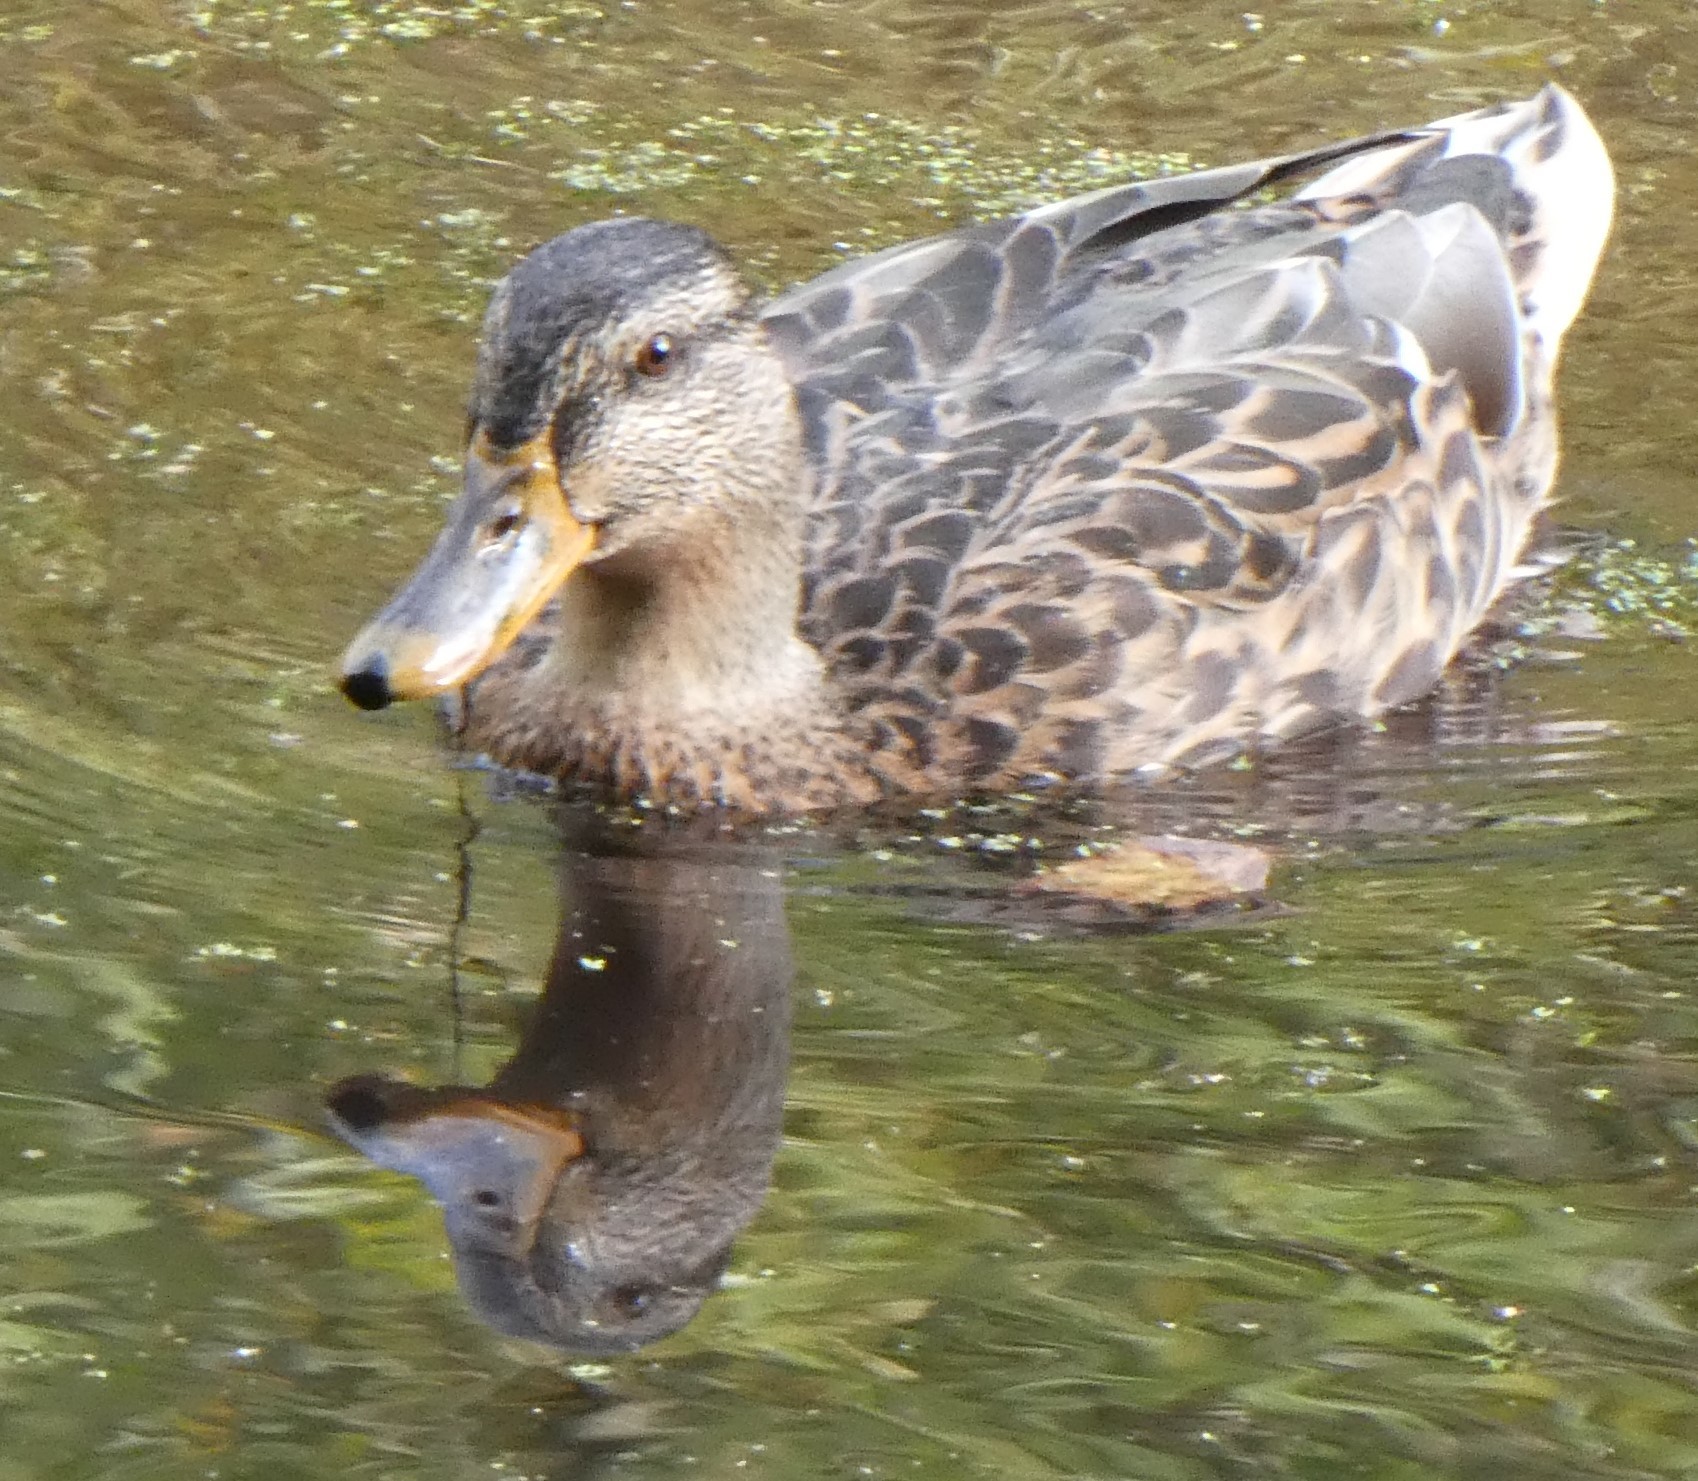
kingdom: Animalia
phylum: Chordata
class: Aves
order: Anseriformes
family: Anatidae
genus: Anas
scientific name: Anas platyrhynchos
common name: Mallard
